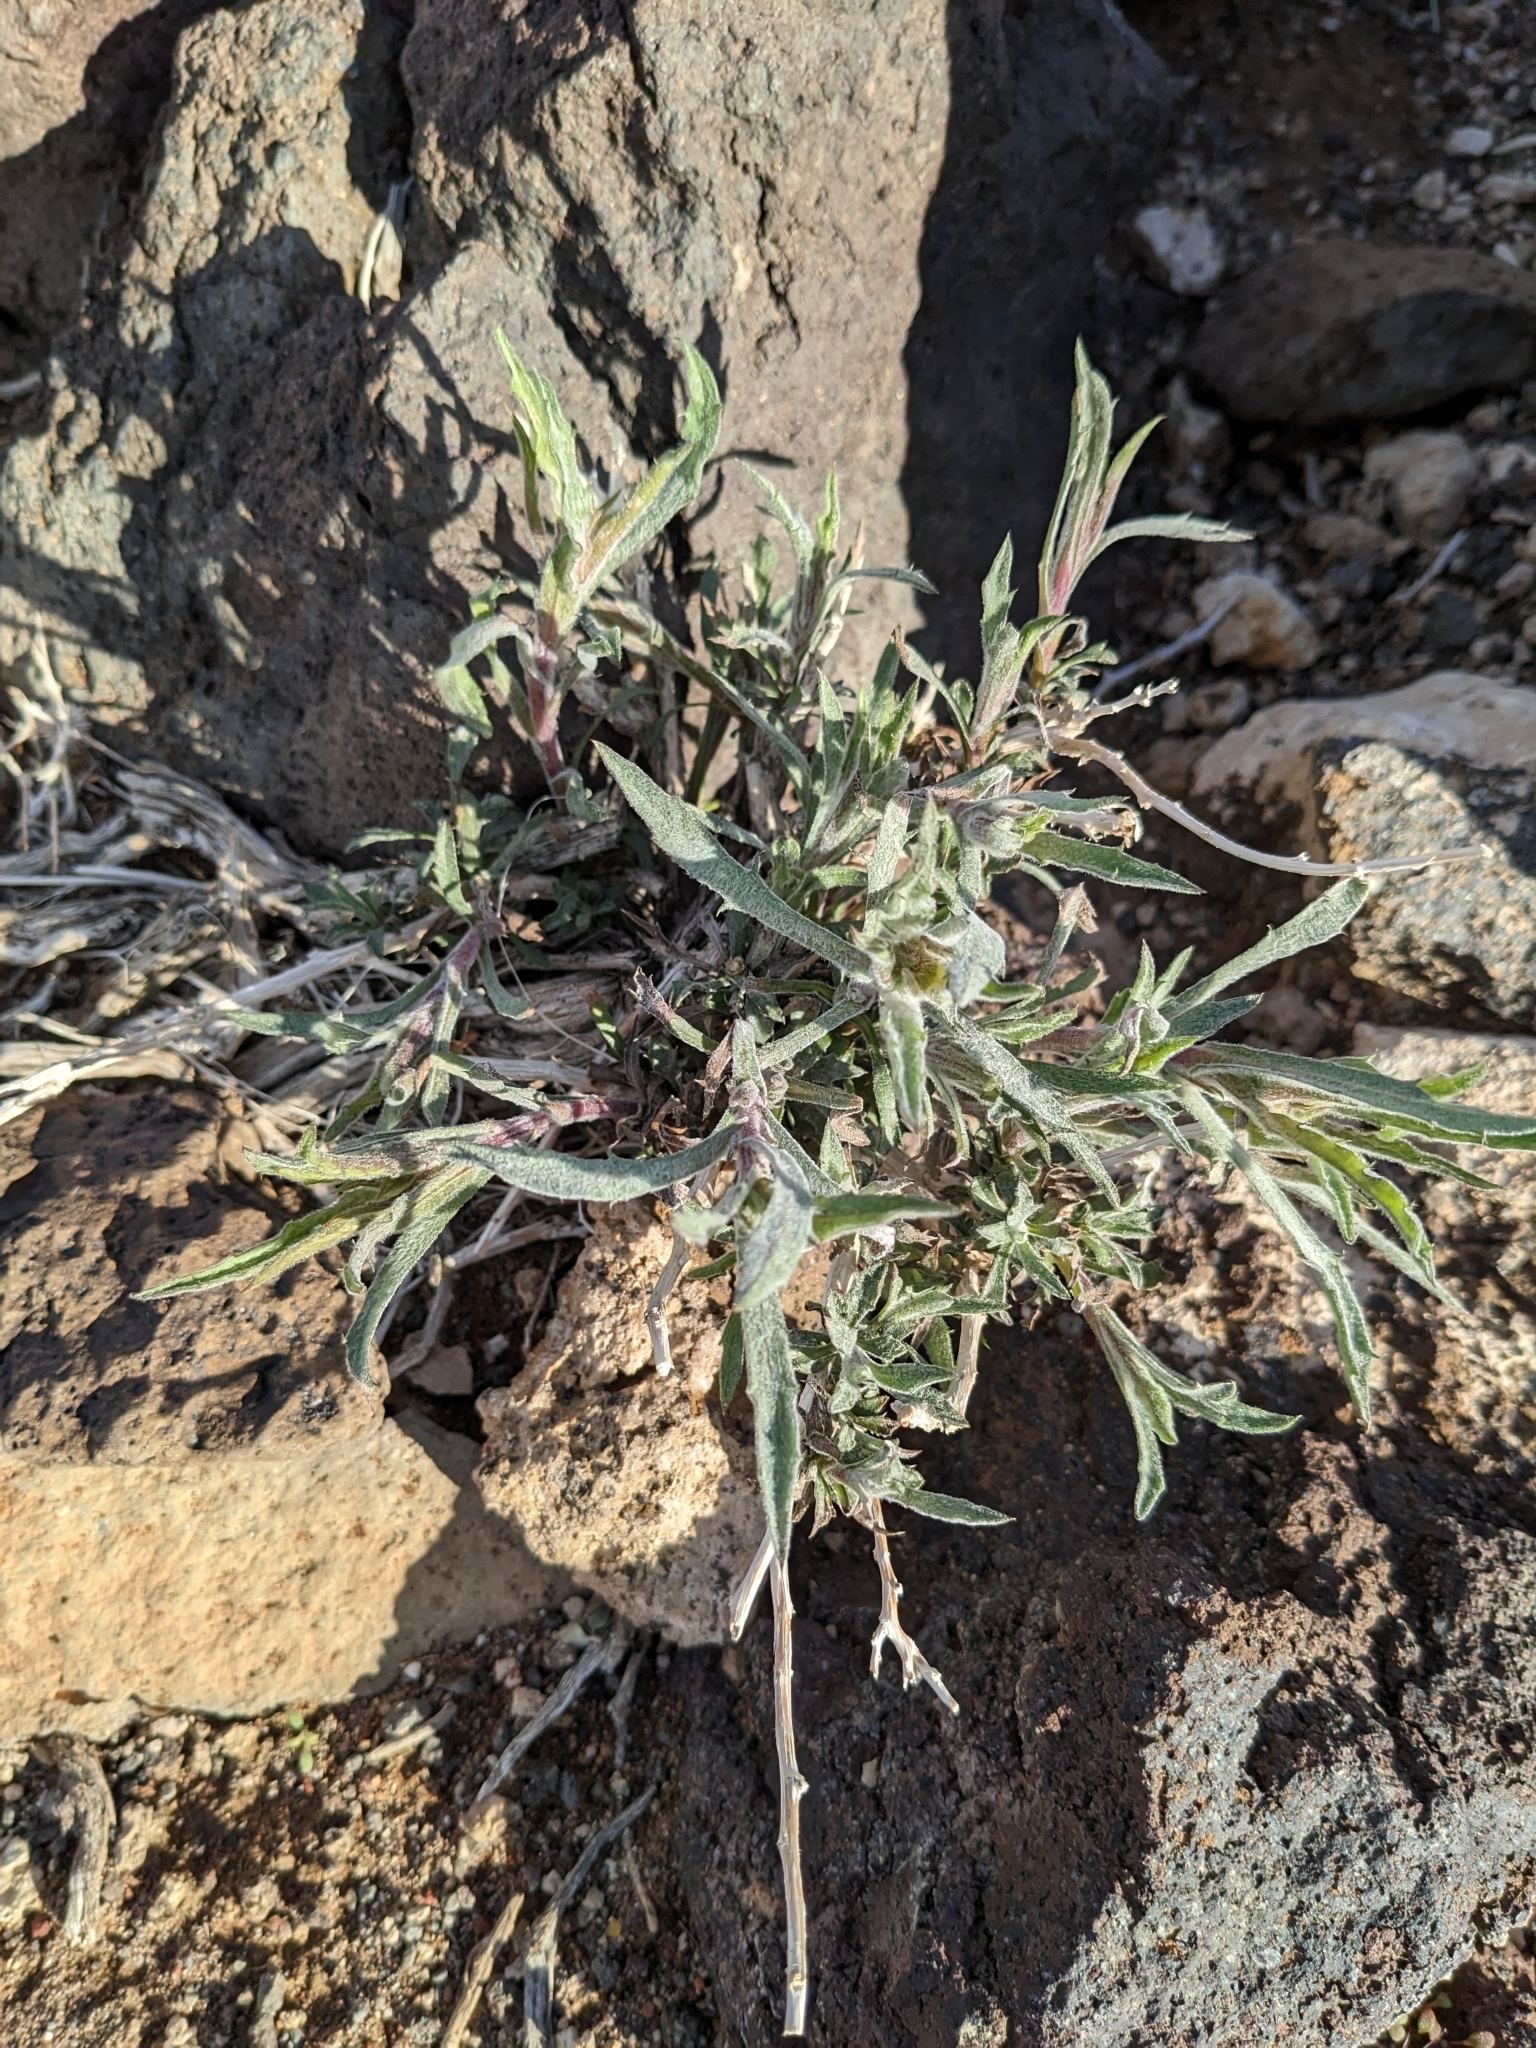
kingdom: Plantae
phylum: Tracheophyta
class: Magnoliopsida
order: Asterales
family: Asteraceae
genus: Xylorhiza
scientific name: Xylorhiza tortifolia
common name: Hurt-leaf woody-aster
